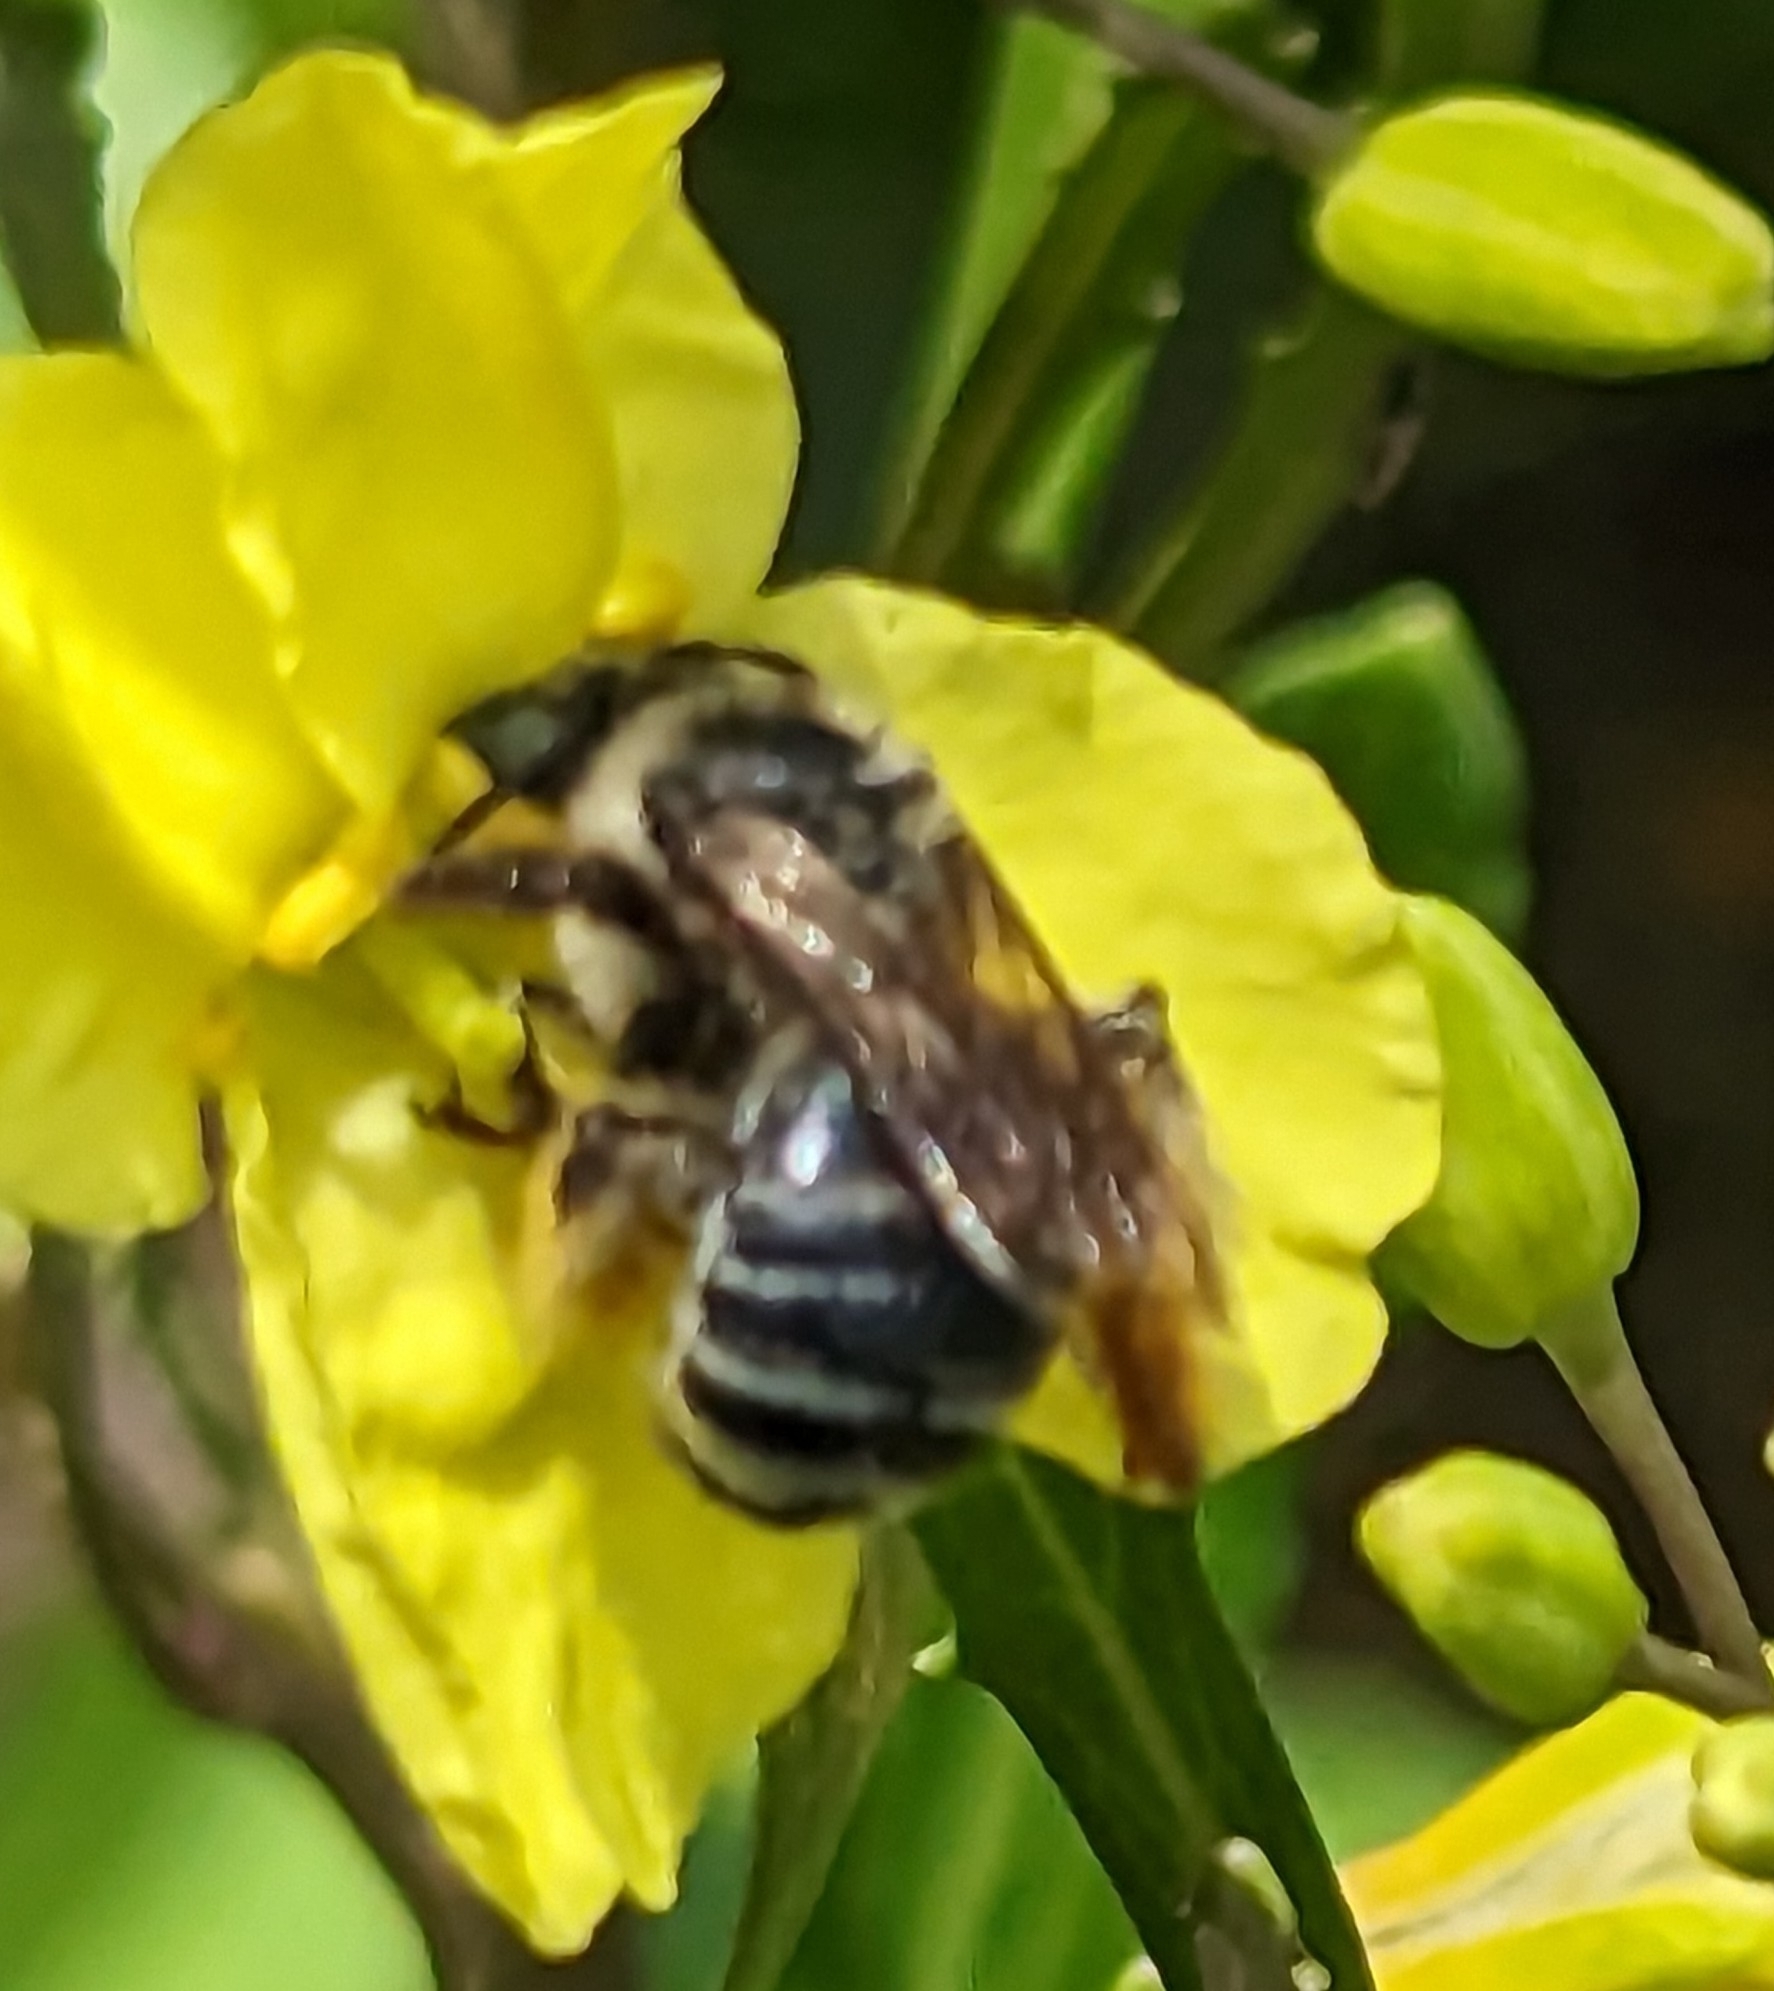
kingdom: Animalia
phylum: Arthropoda
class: Insecta
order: Hymenoptera
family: Apidae
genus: Melissodes
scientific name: Melissodes communis
